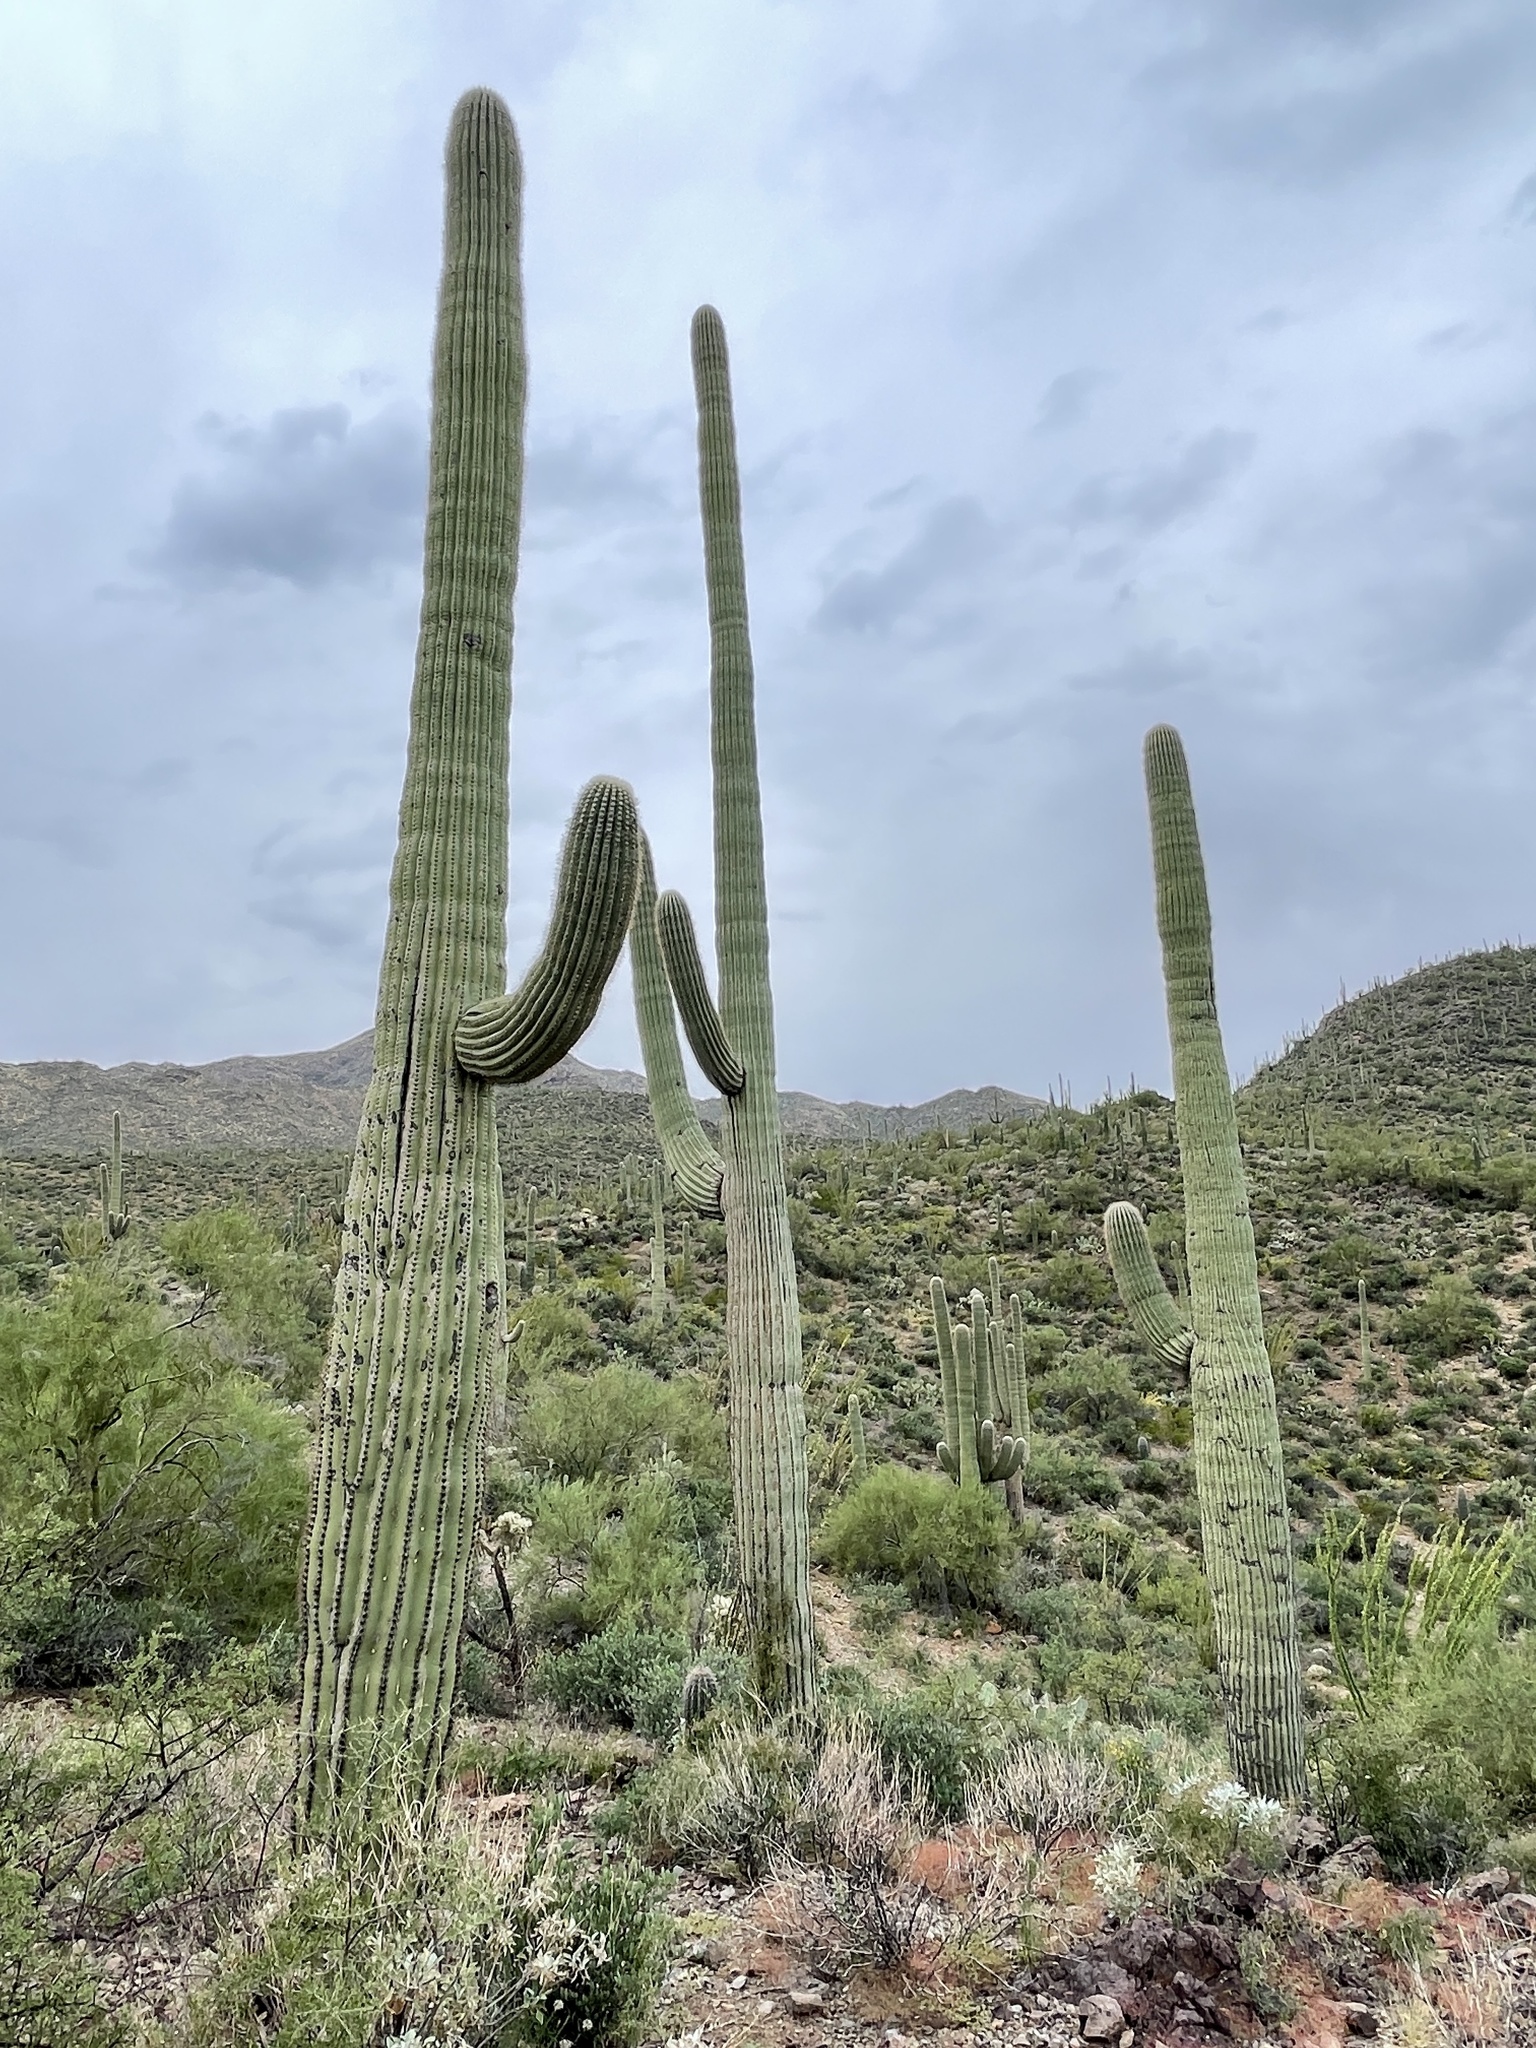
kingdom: Plantae
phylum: Tracheophyta
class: Magnoliopsida
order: Caryophyllales
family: Cactaceae
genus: Carnegiea
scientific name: Carnegiea gigantea
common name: Saguaro
